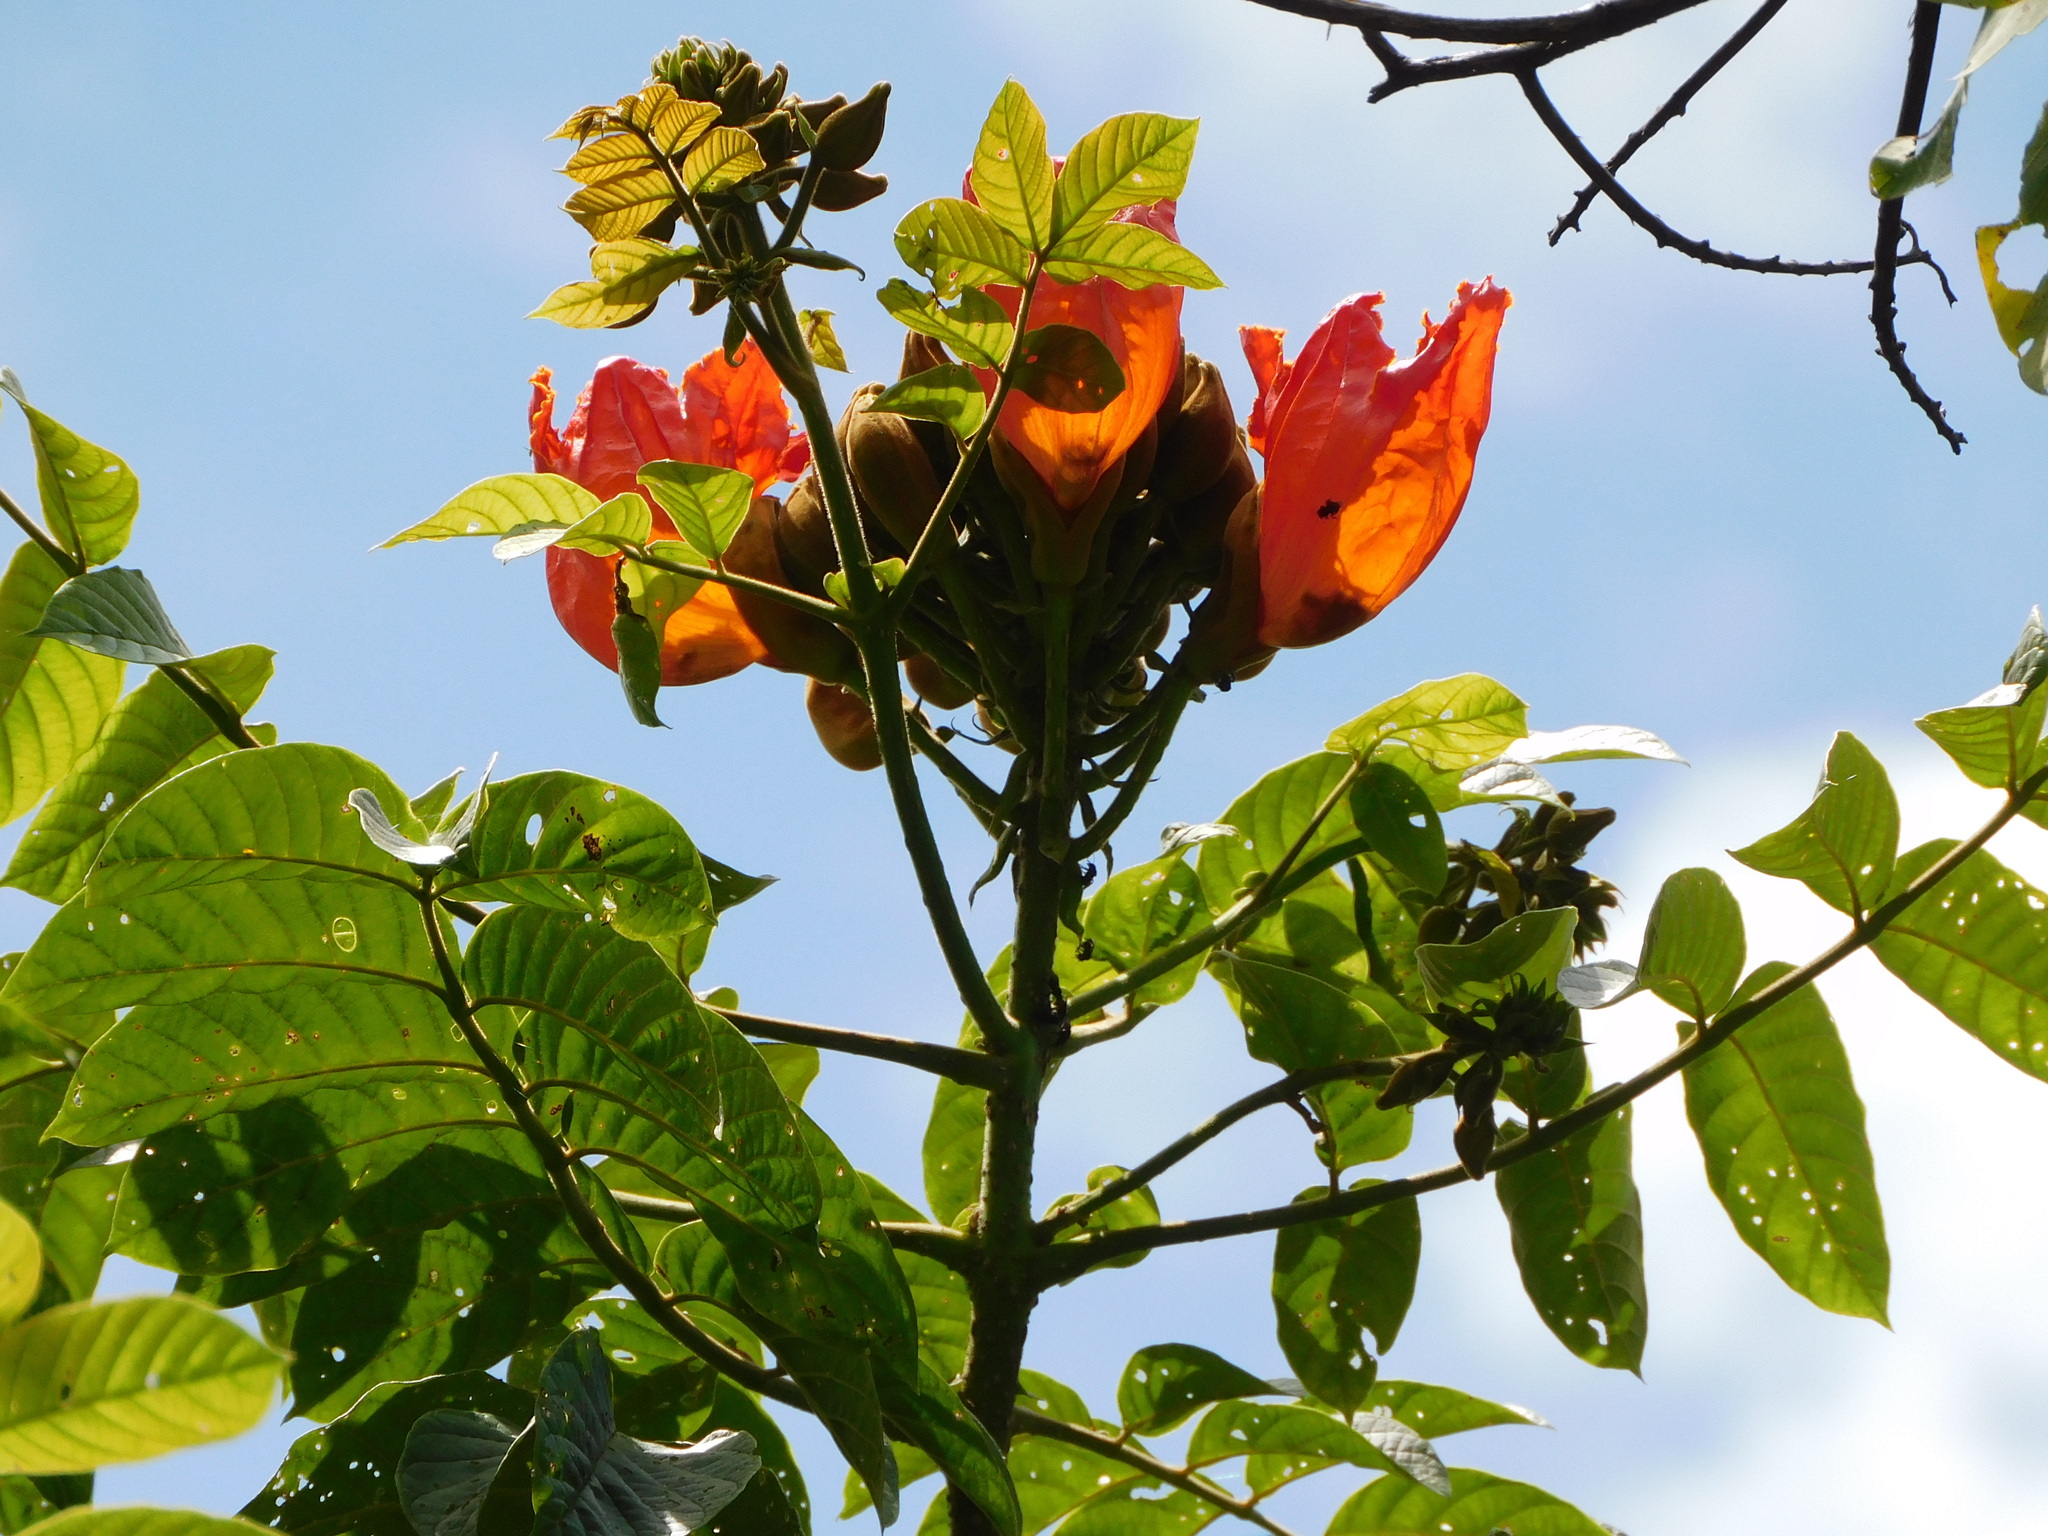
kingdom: Plantae
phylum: Tracheophyta
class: Magnoliopsida
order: Lamiales
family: Bignoniaceae
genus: Spathodea
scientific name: Spathodea campanulata
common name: African tuliptree
